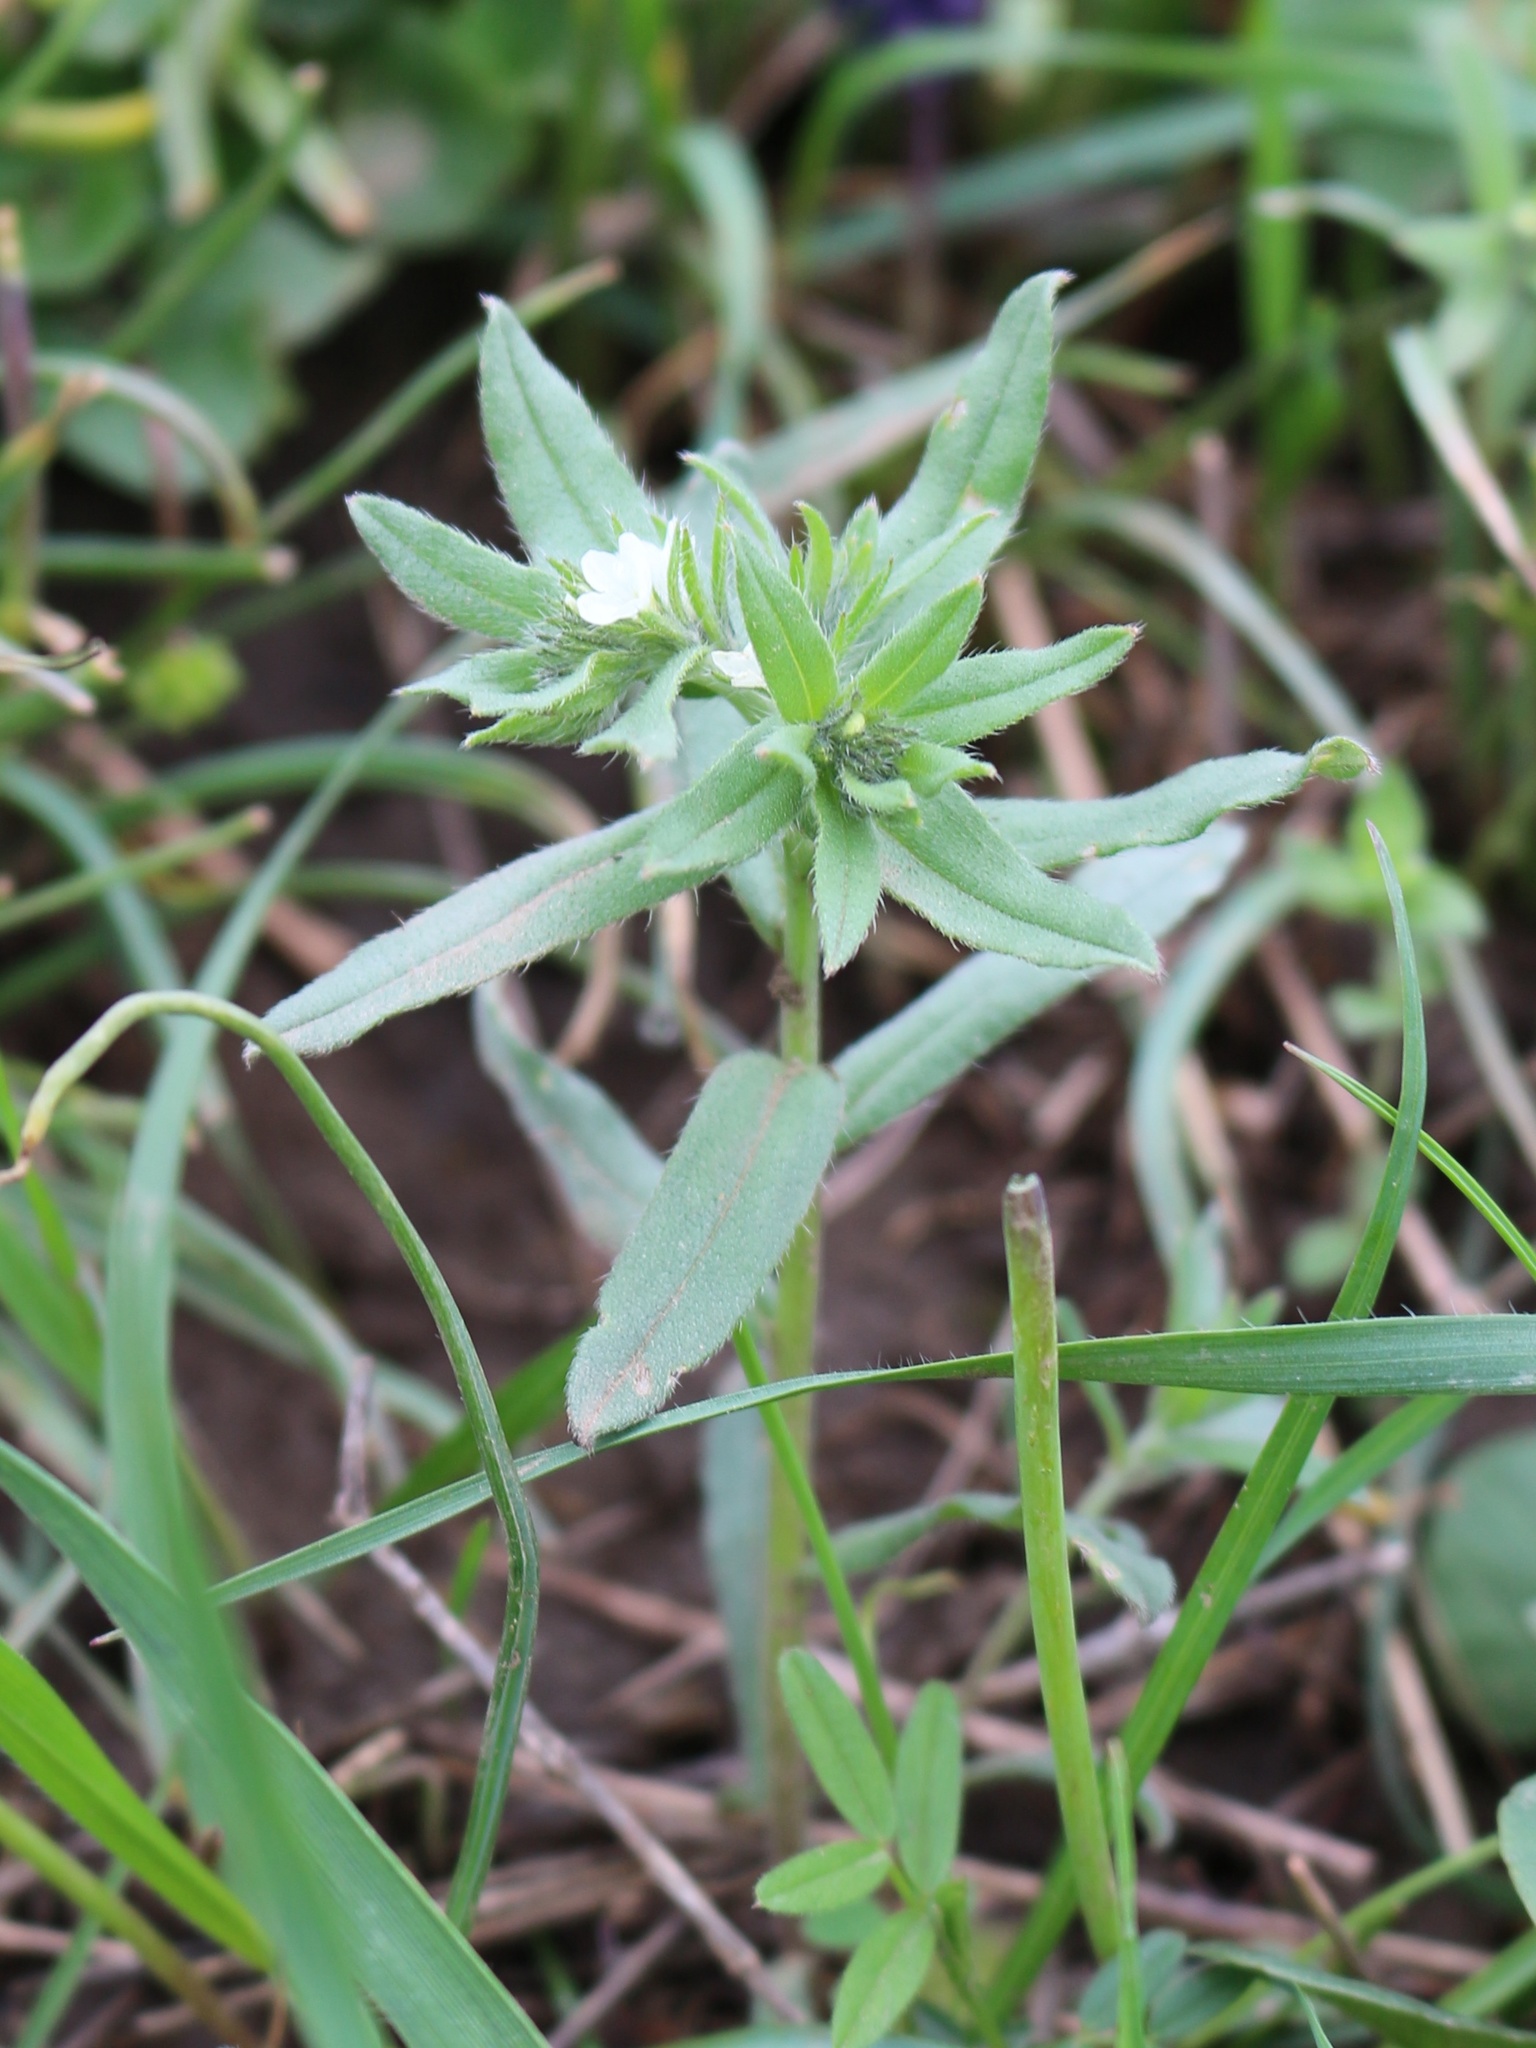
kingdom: Plantae
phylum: Tracheophyta
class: Magnoliopsida
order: Boraginales
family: Boraginaceae
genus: Buglossoides
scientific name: Buglossoides arvensis
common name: Corn gromwell
